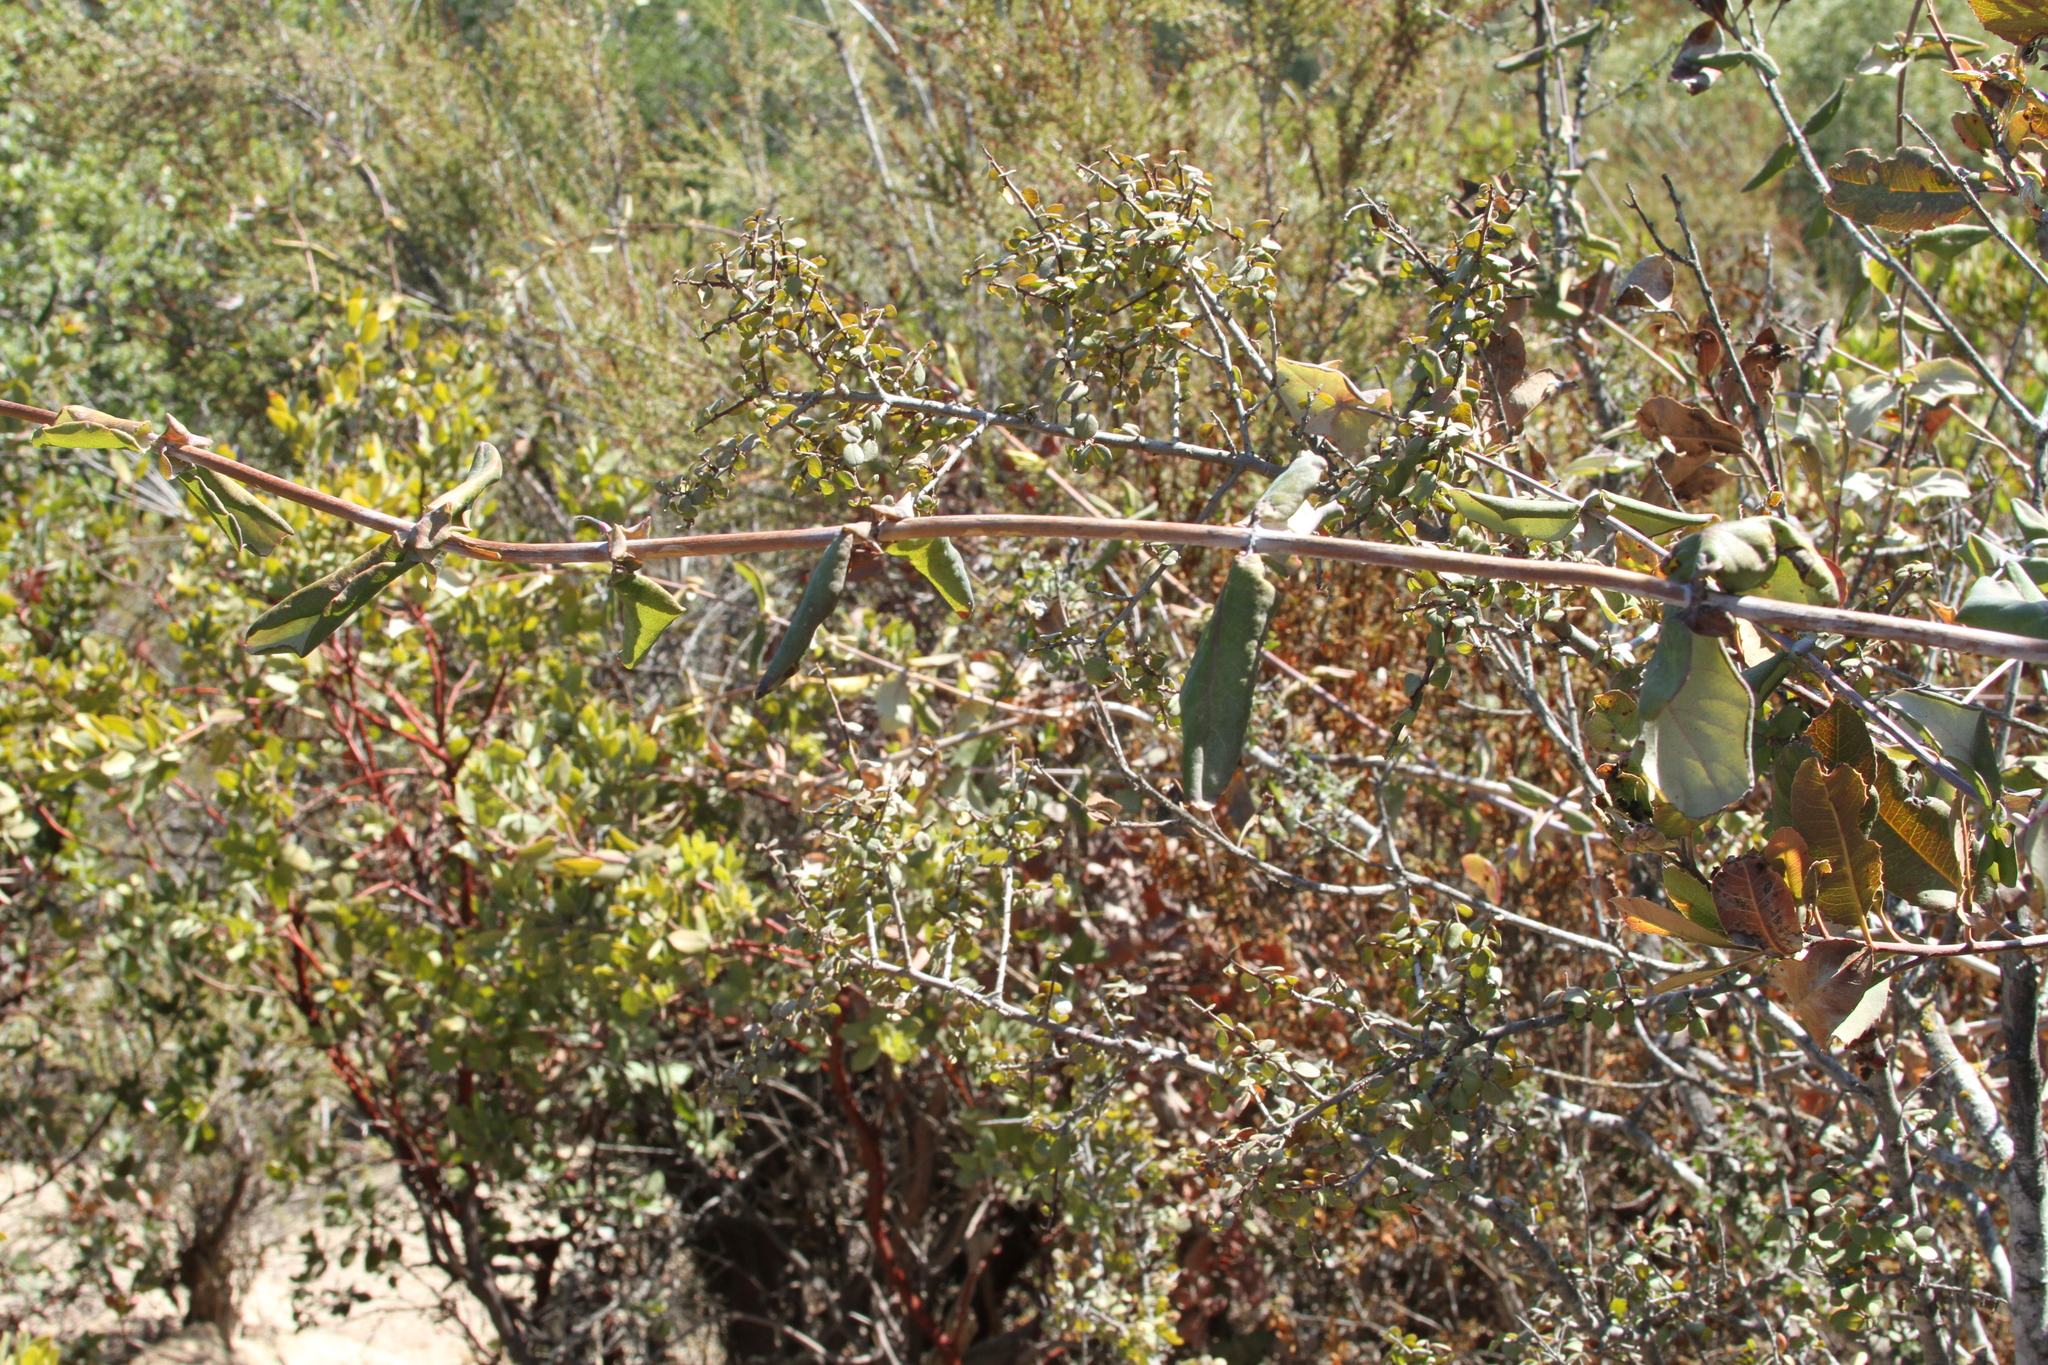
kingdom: Plantae
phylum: Tracheophyta
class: Magnoliopsida
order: Dipsacales
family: Caprifoliaceae
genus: Lonicera
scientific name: Lonicera hispidula
